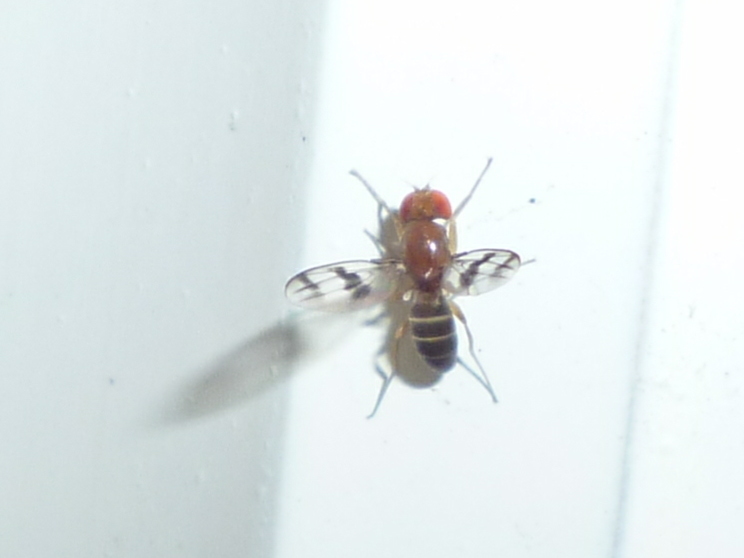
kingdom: Animalia
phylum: Arthropoda
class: Insecta
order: Diptera
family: Drosophilidae
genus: Chymomyza
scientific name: Chymomyza amoena
